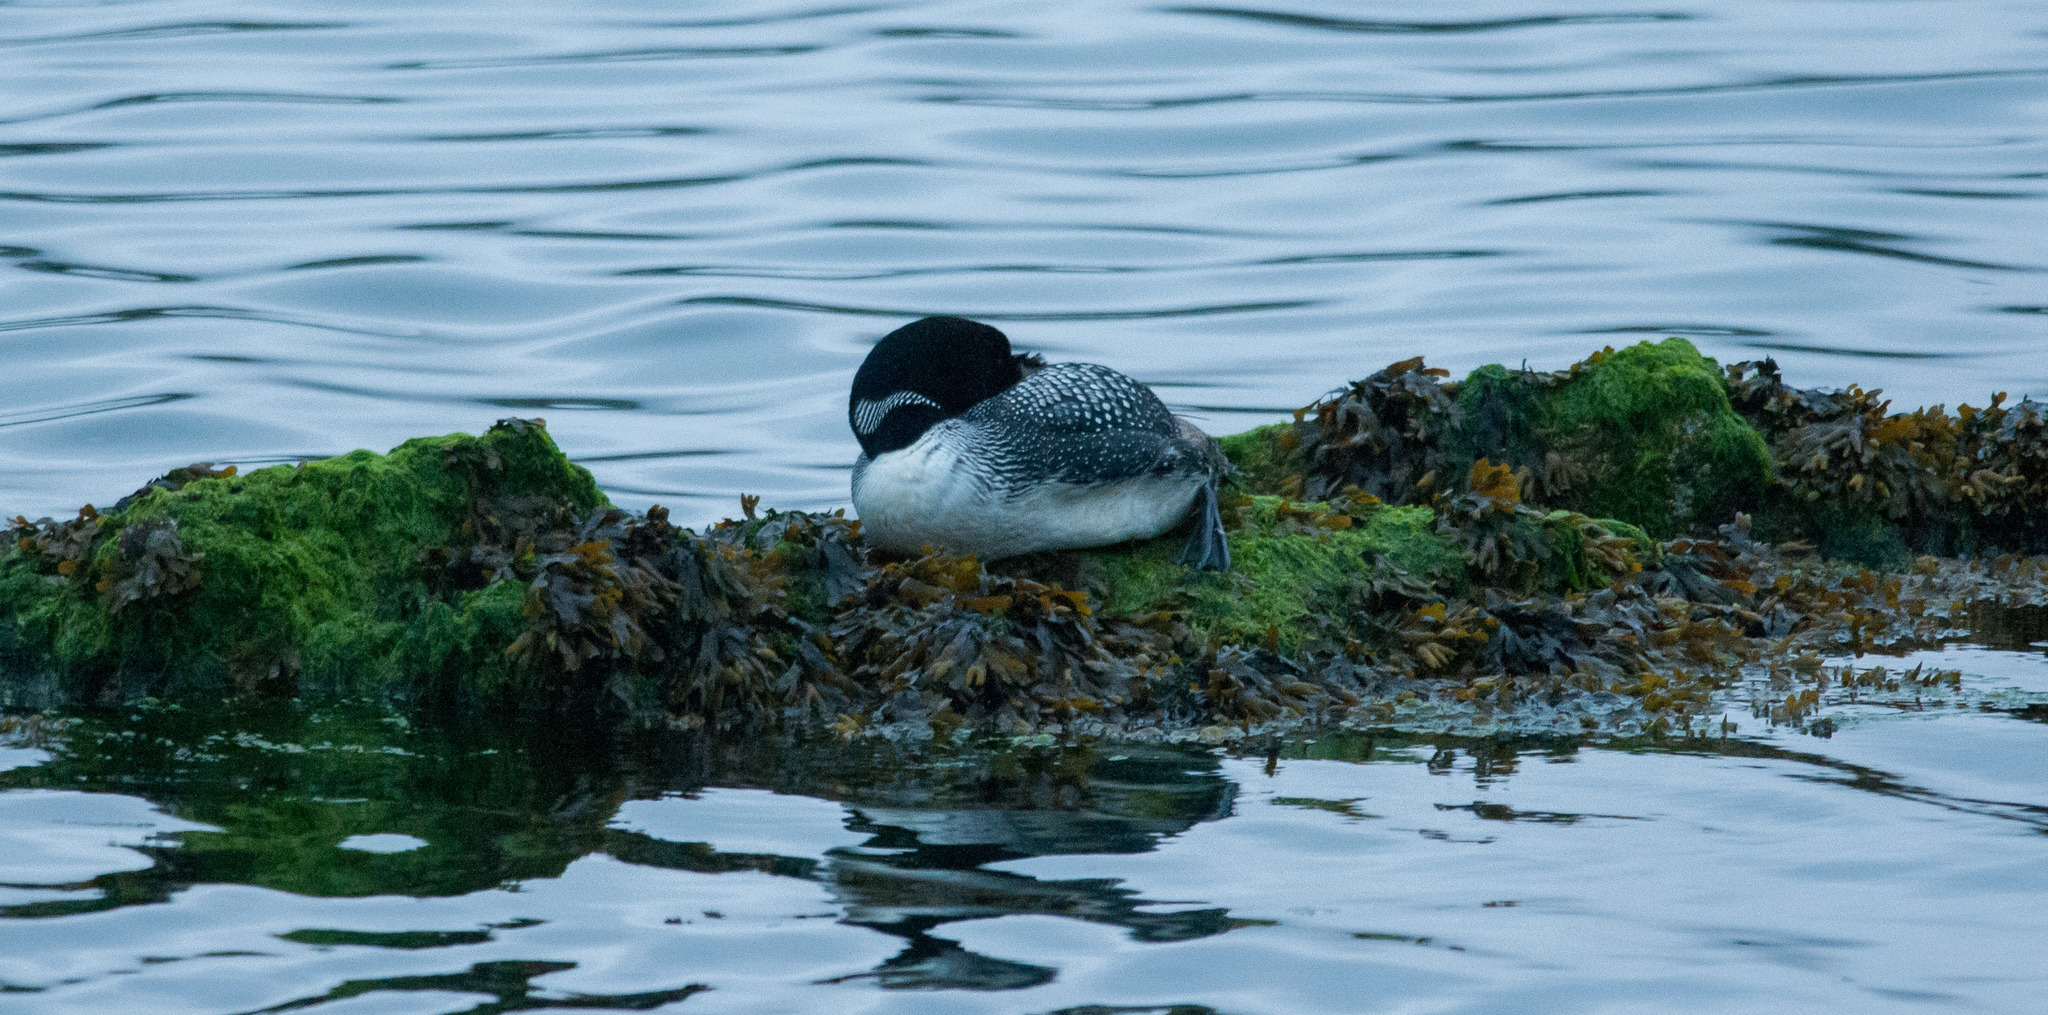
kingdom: Animalia
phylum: Chordata
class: Aves
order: Gaviiformes
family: Gaviidae
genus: Gavia
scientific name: Gavia immer
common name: Common loon
